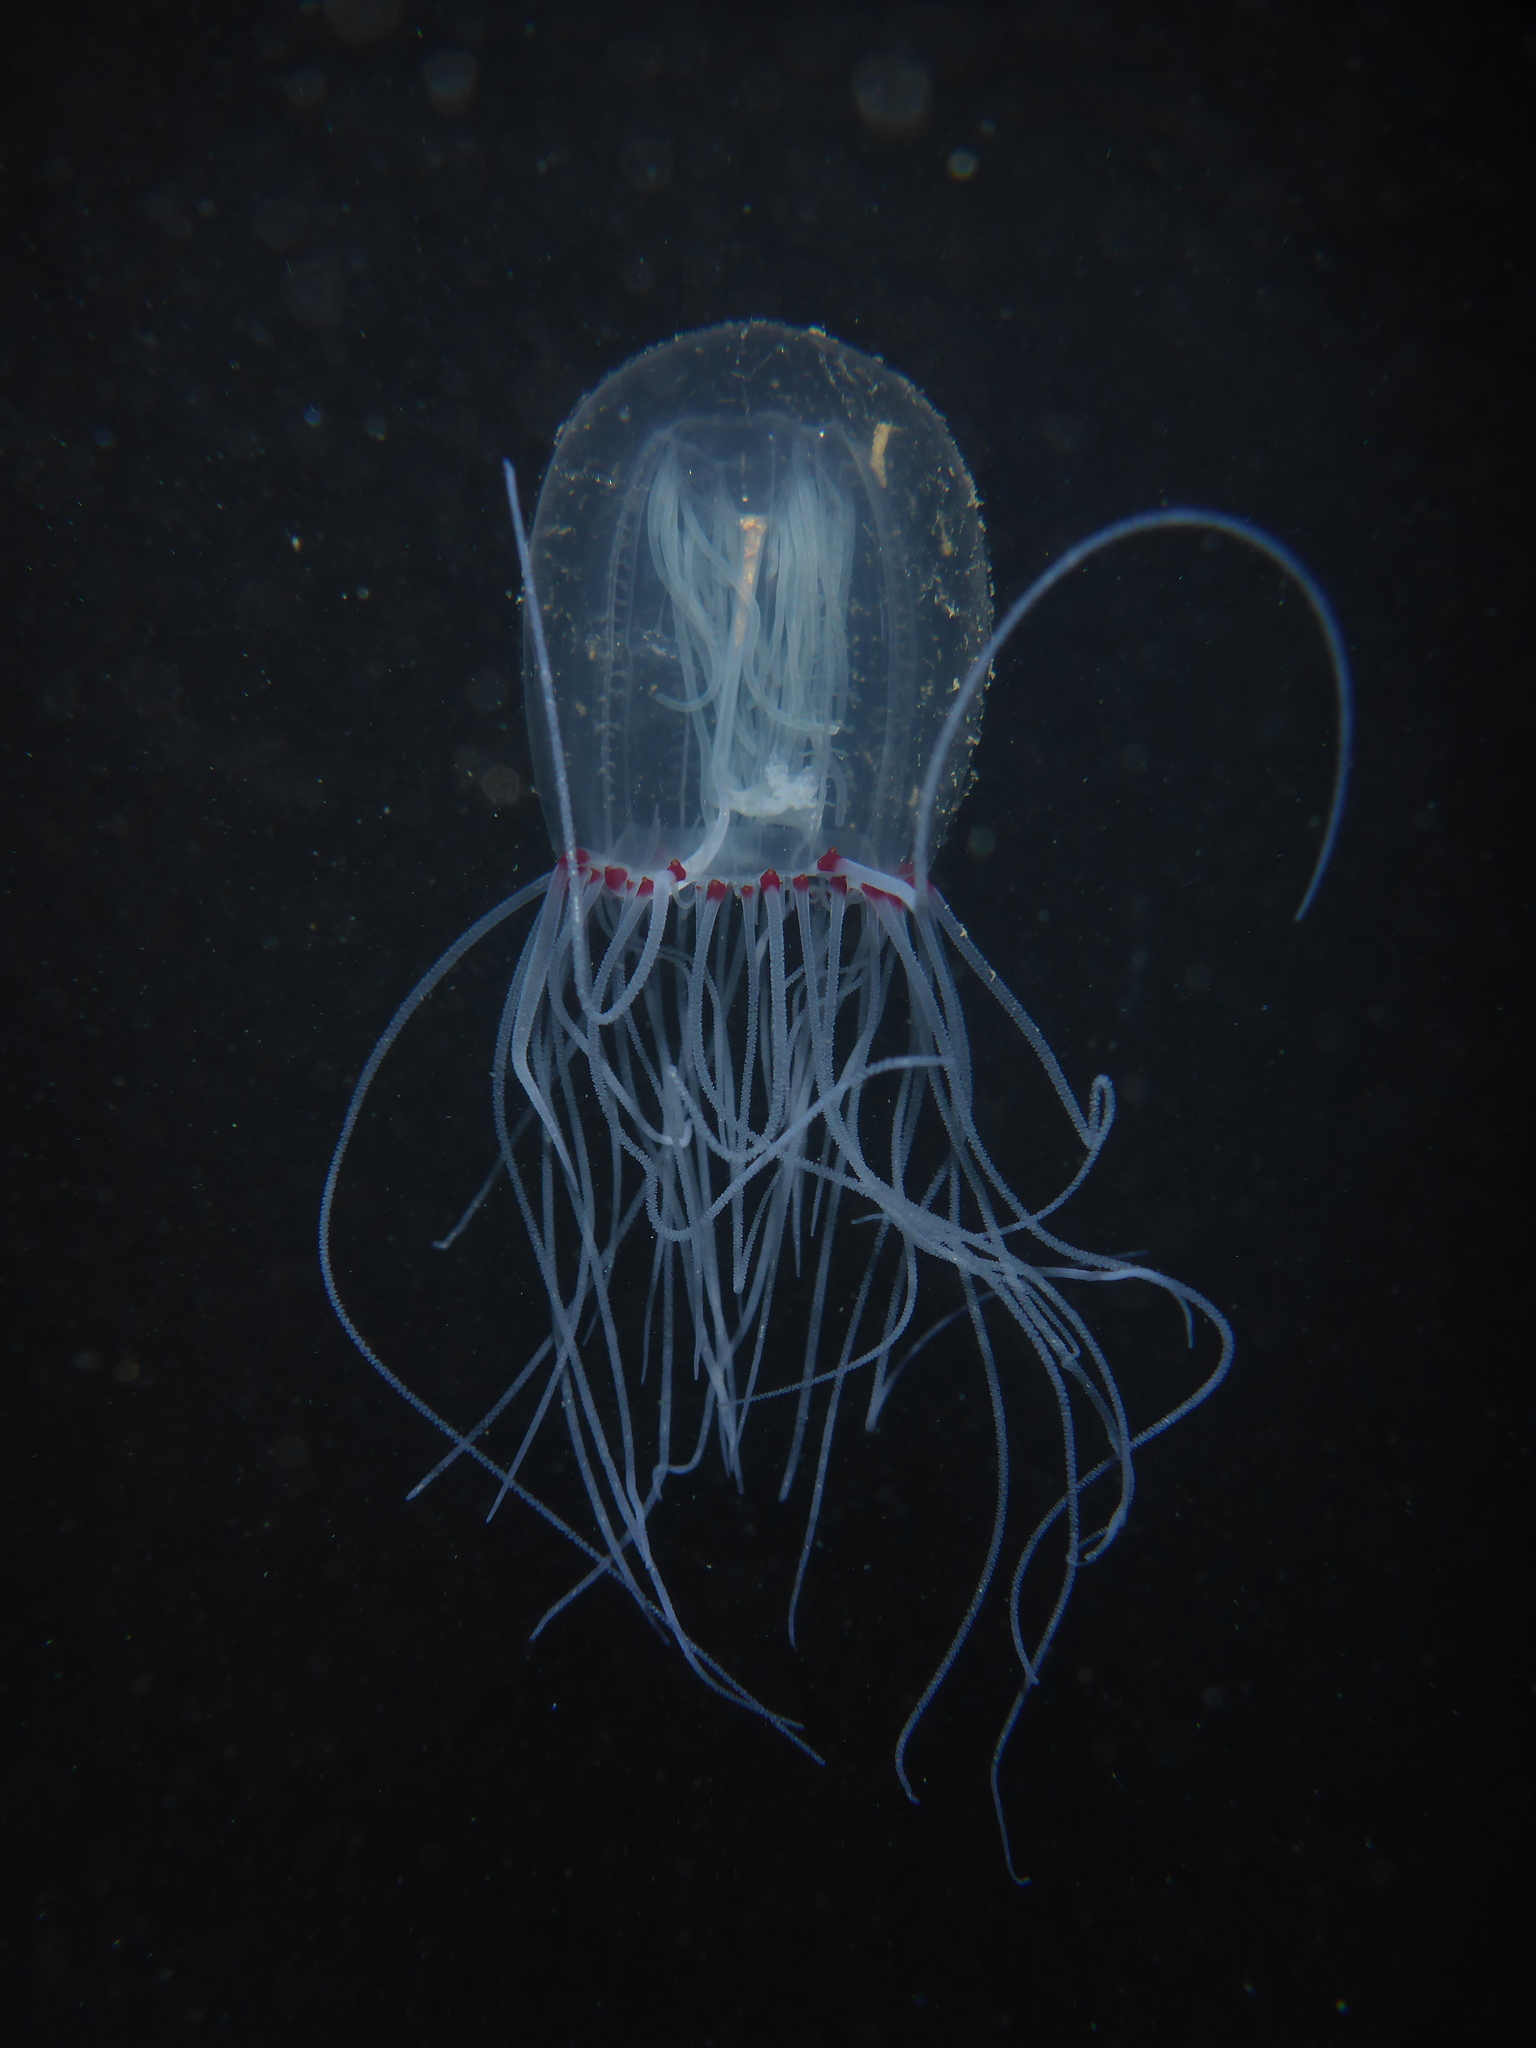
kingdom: Animalia
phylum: Cnidaria
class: Hydrozoa
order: Anthoathecata
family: Corynidae
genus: Polyorchis
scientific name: Polyorchis penicillatus
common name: Penicillate jellyfish
